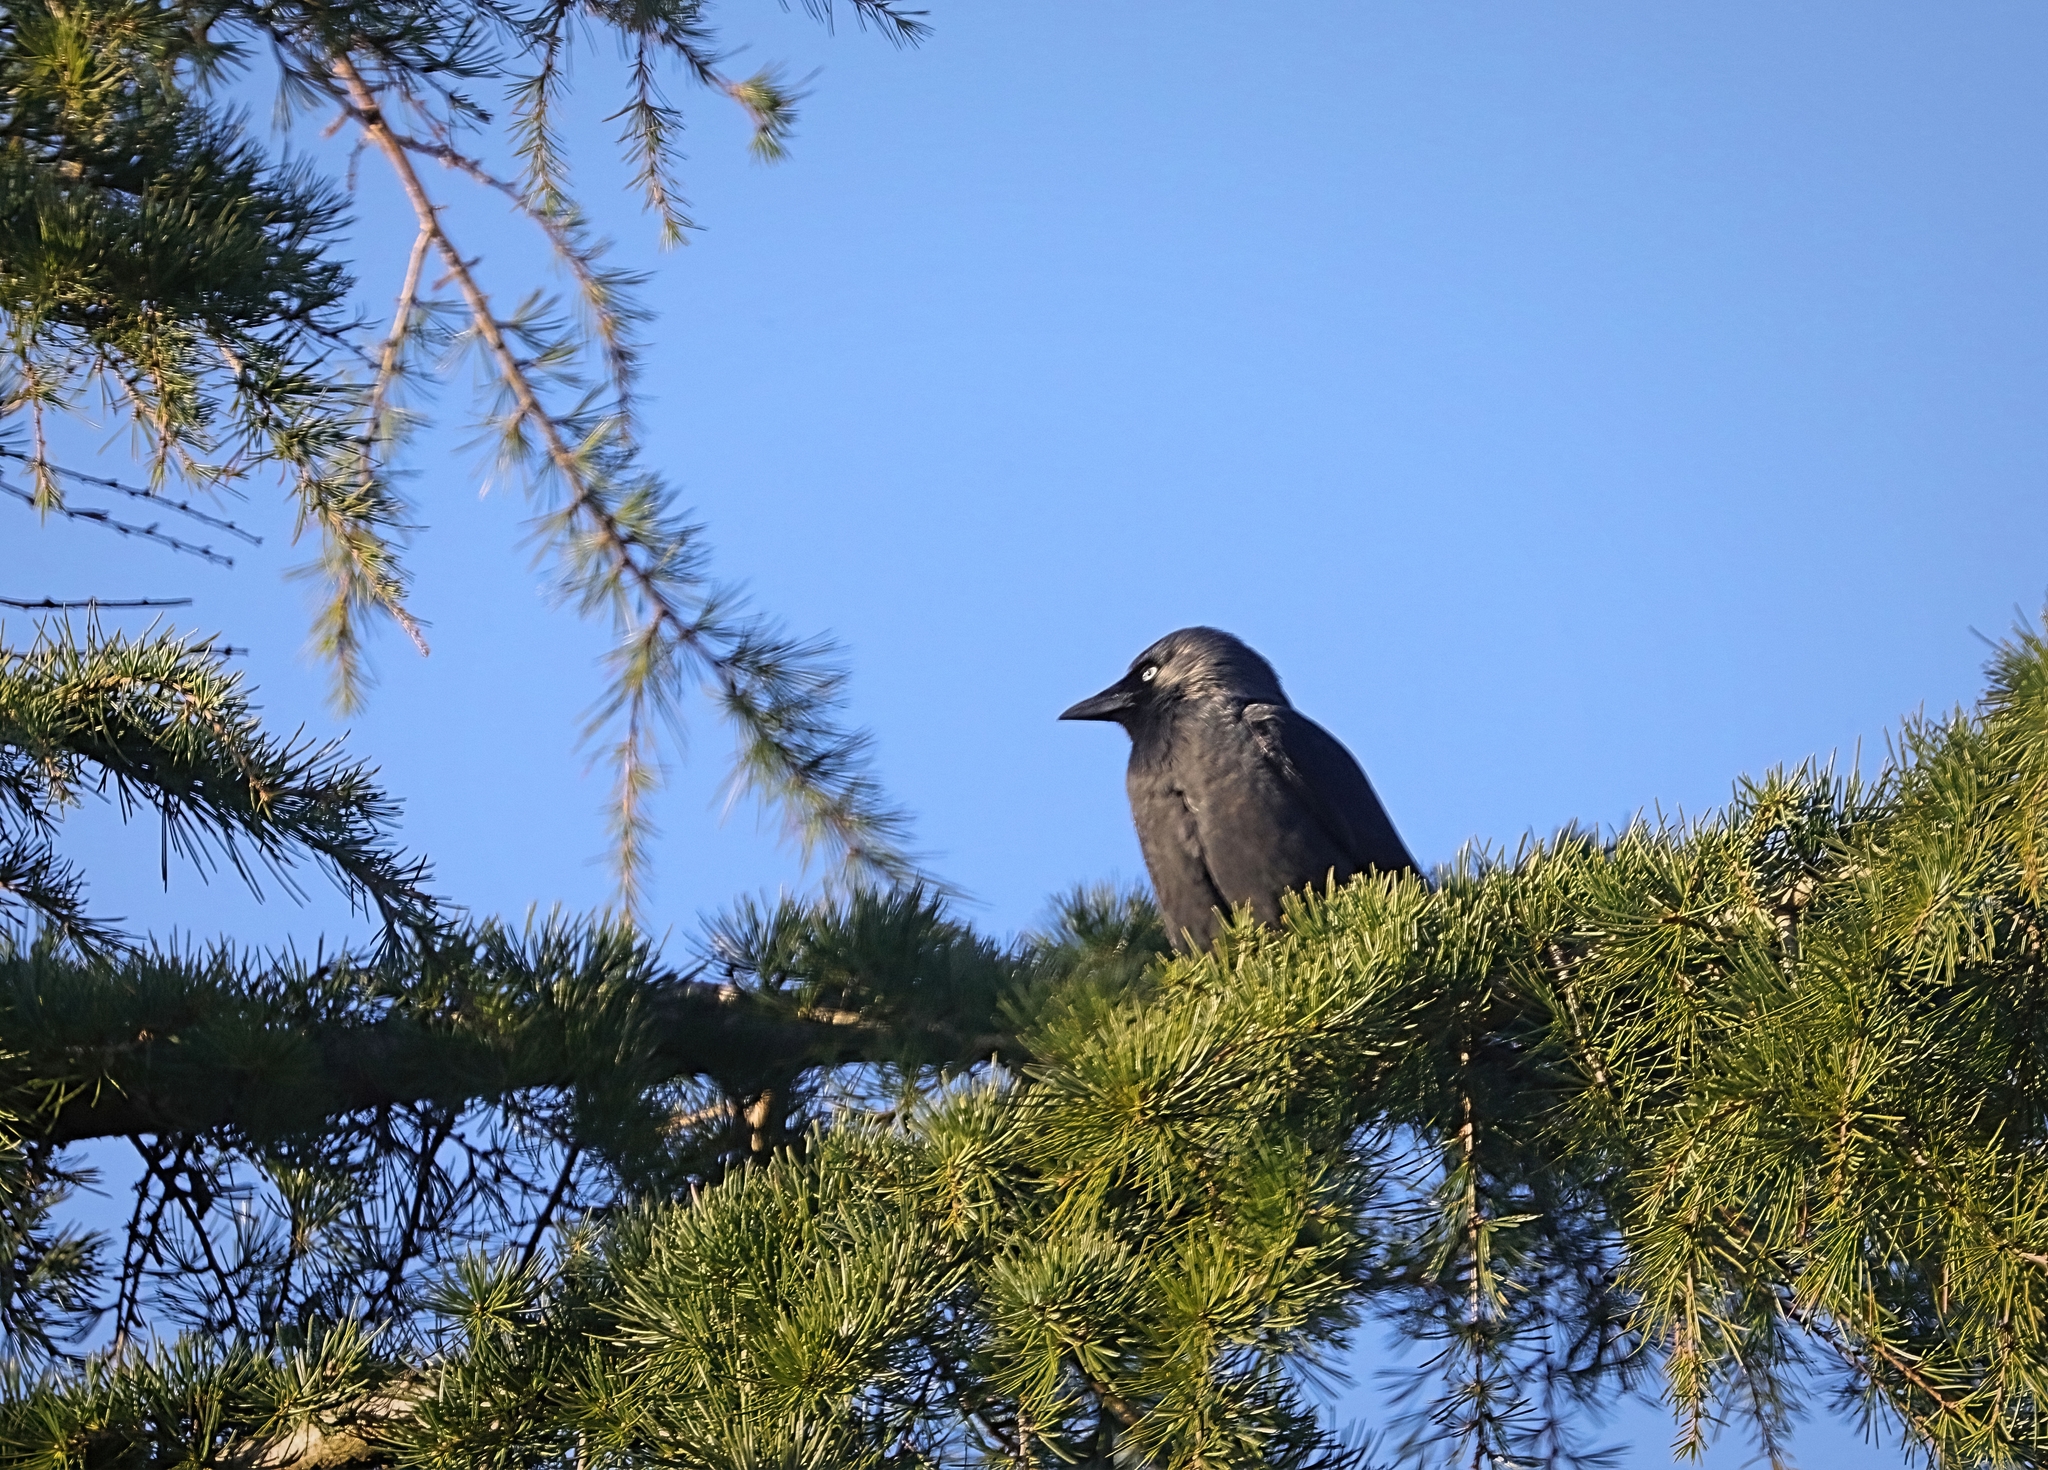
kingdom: Animalia
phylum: Chordata
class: Aves
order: Passeriformes
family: Corvidae
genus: Coloeus
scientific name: Coloeus monedula
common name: Western jackdaw
